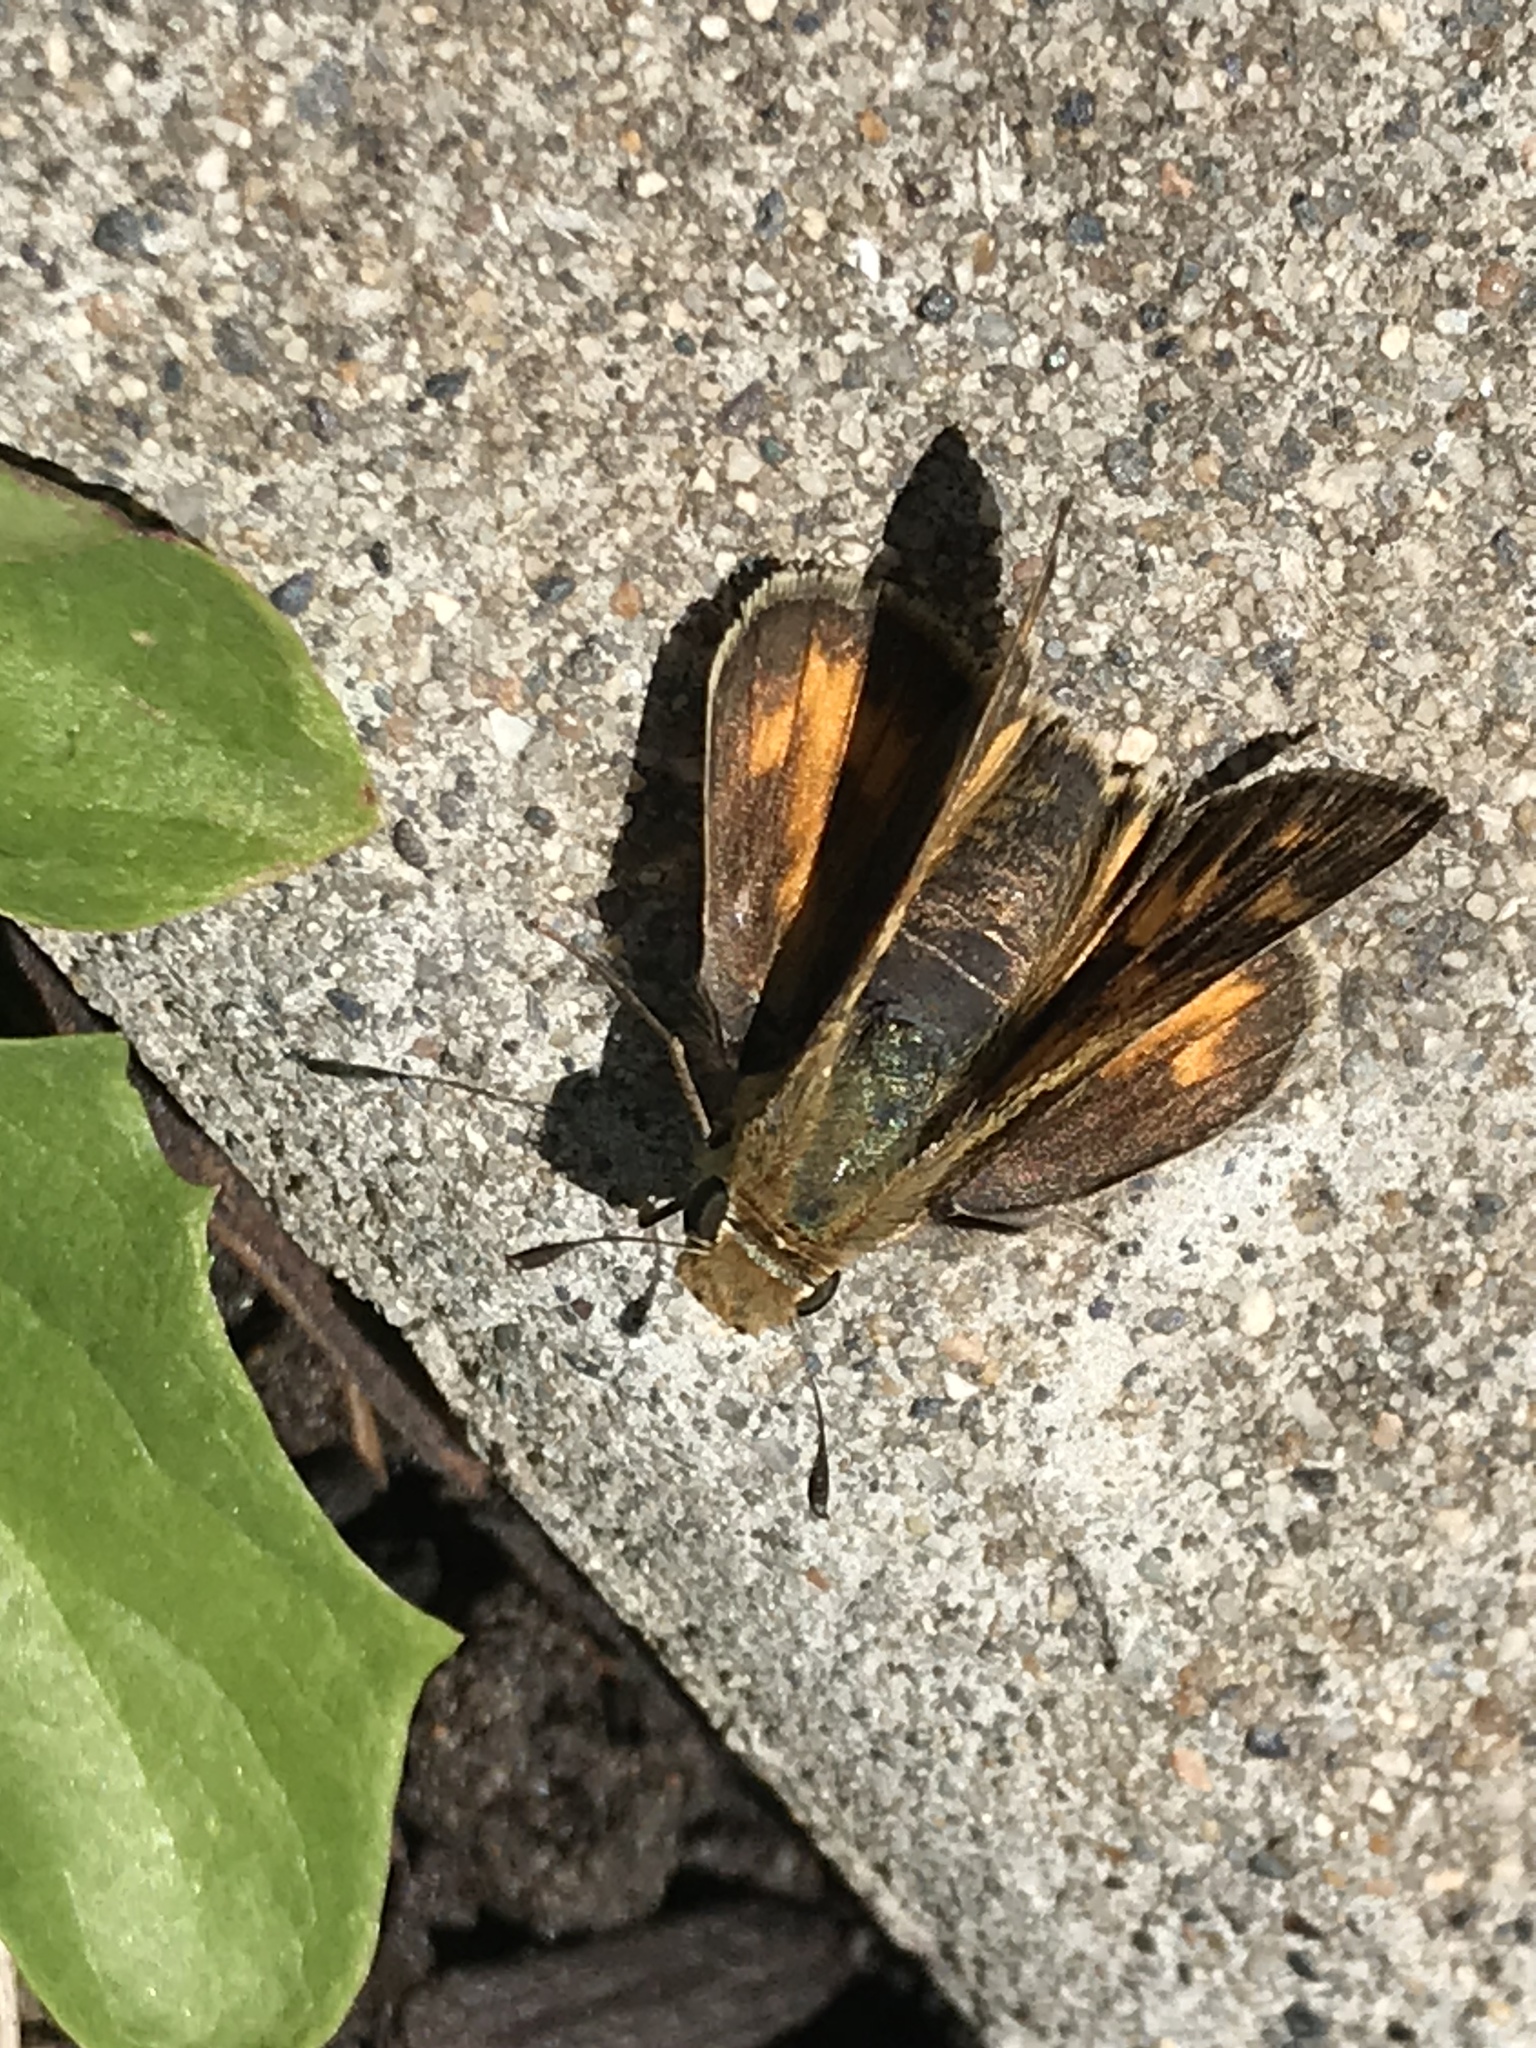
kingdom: Animalia
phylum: Arthropoda
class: Insecta
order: Lepidoptera
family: Hesperiidae
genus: Hylephila
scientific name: Hylephila phyleus
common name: Fiery skipper
